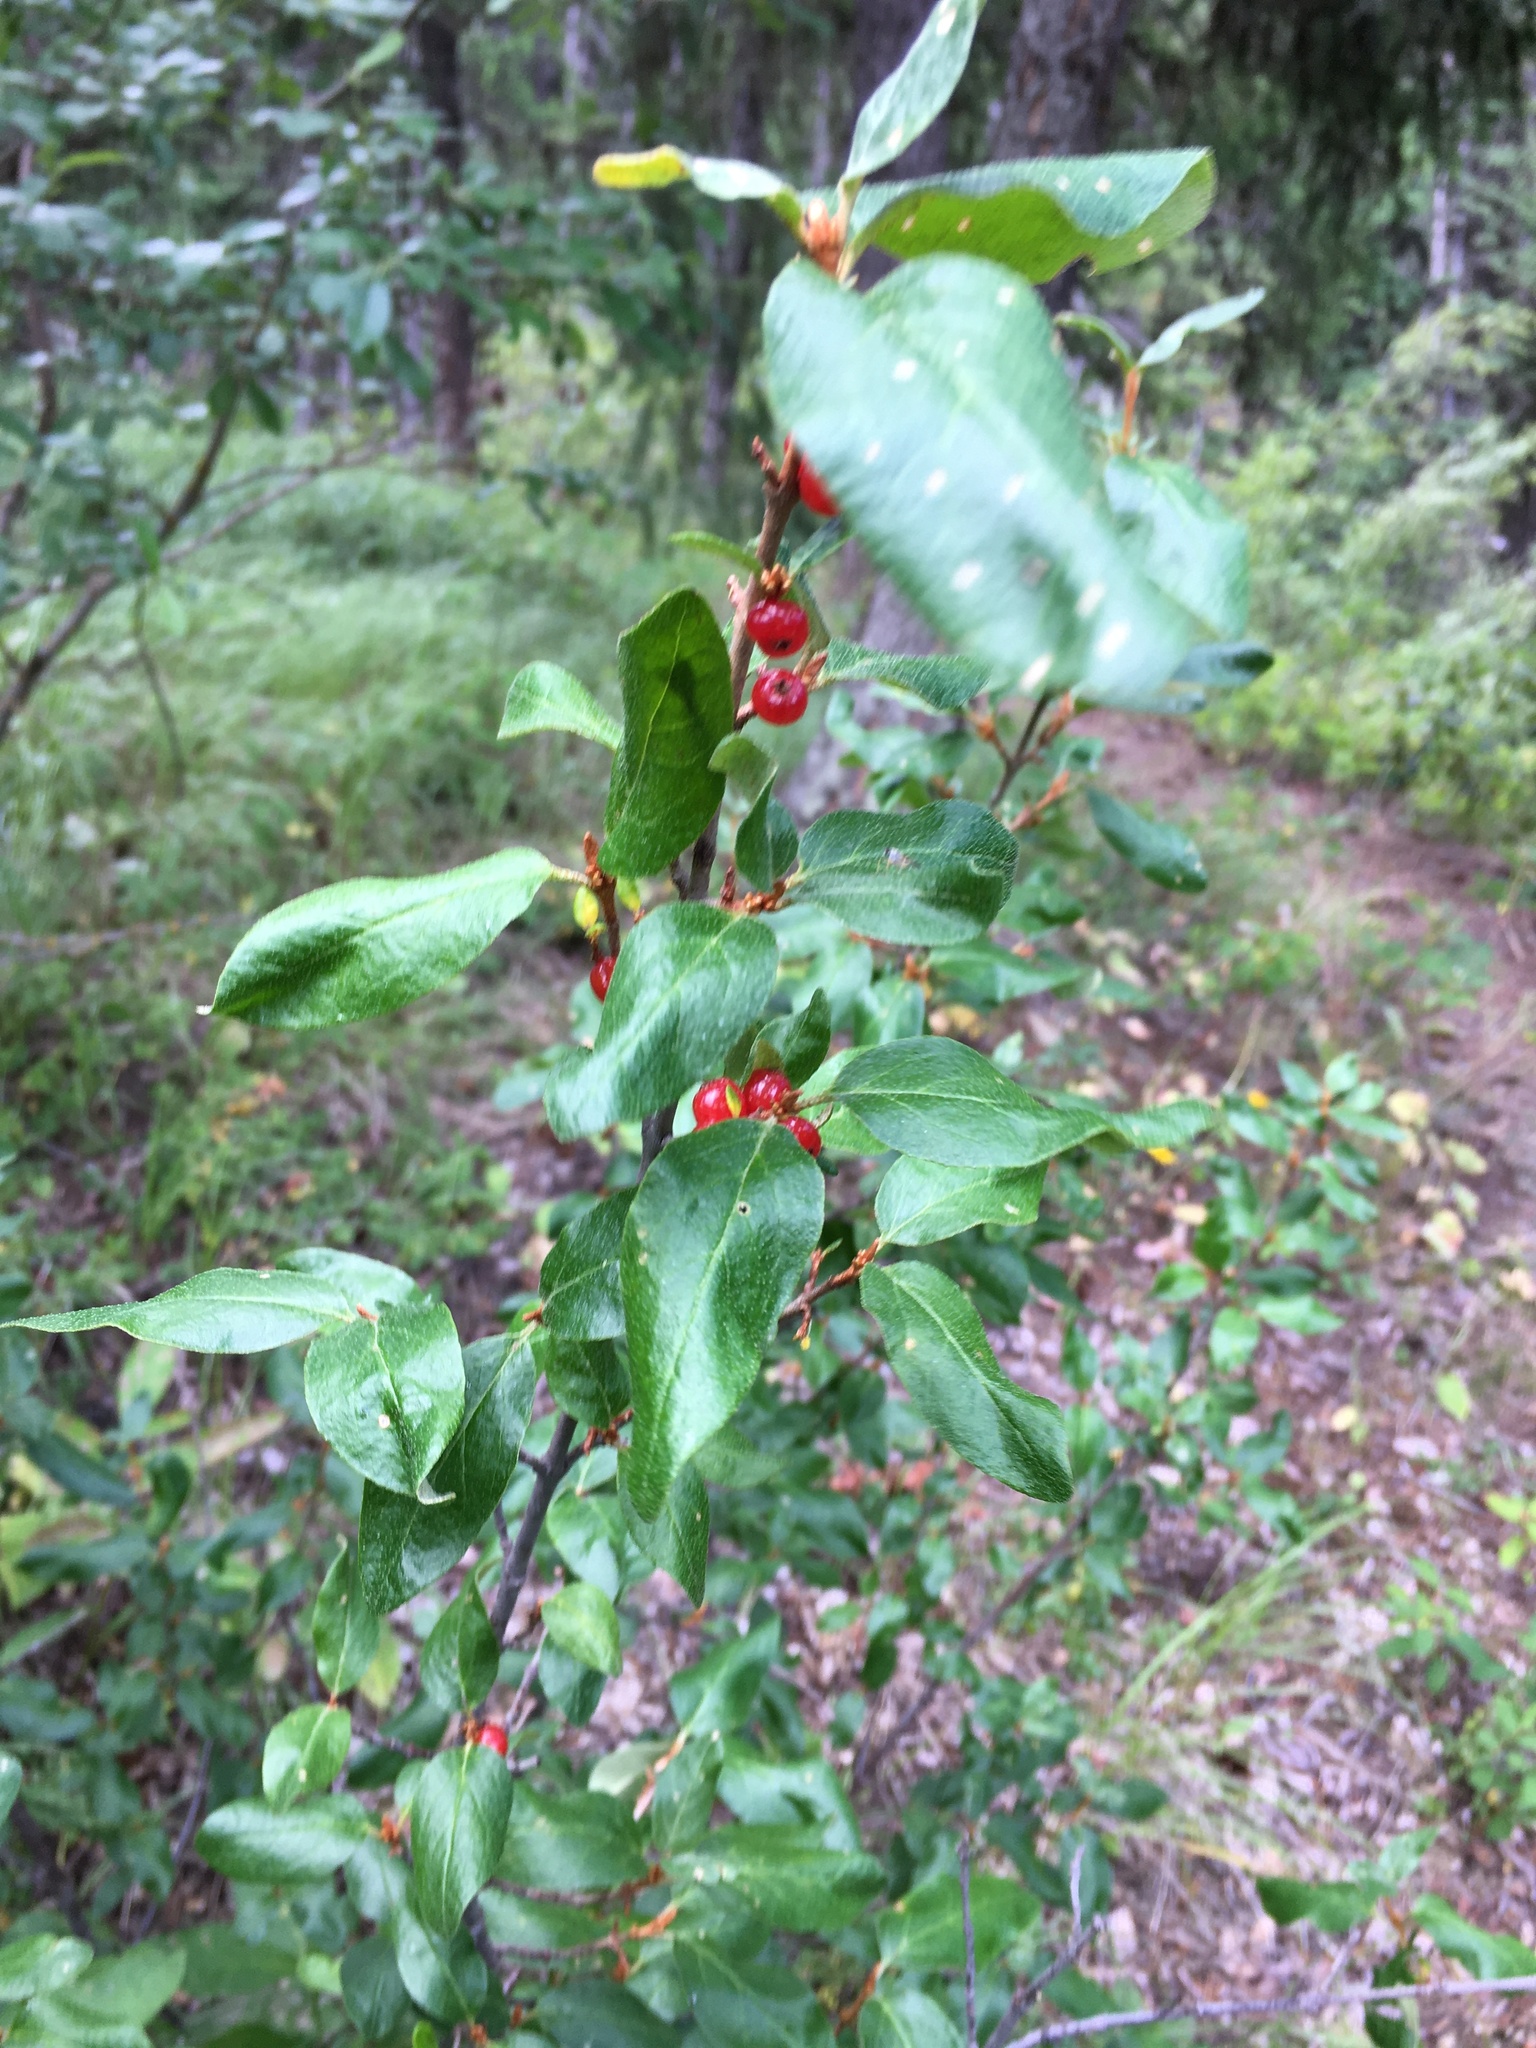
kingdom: Plantae
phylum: Tracheophyta
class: Magnoliopsida
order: Rosales
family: Elaeagnaceae
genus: Shepherdia
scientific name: Shepherdia canadensis
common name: Soapberry
